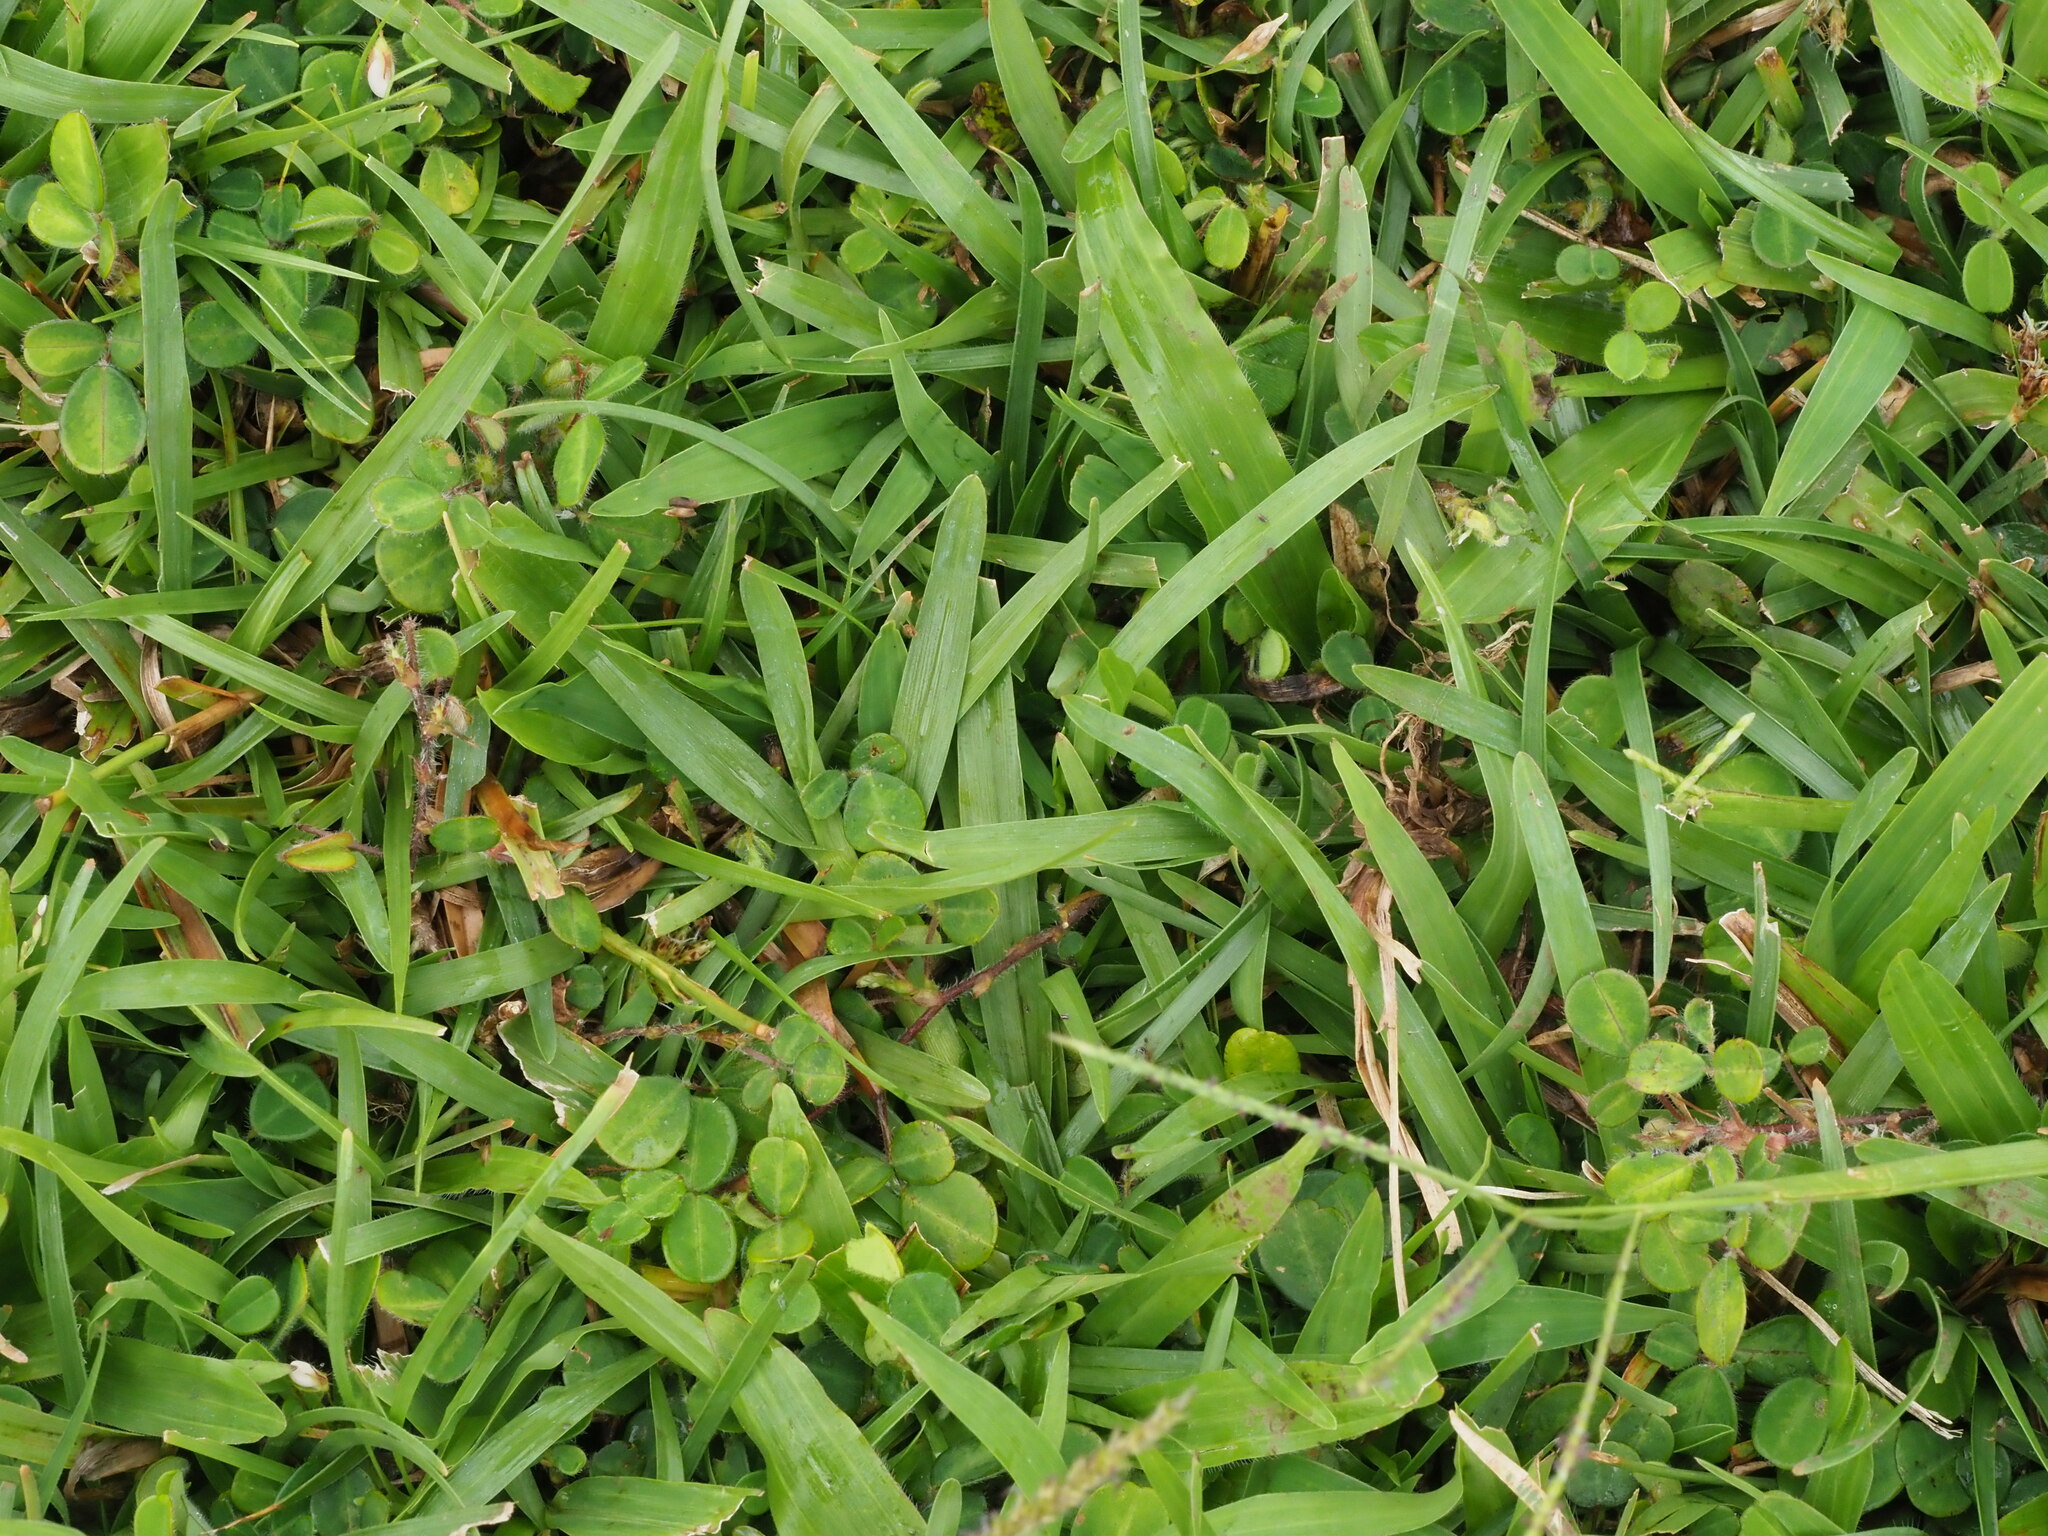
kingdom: Plantae
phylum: Tracheophyta
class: Liliopsida
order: Poales
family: Poaceae
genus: Axonopus
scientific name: Axonopus fissifolius
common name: Common carpetgrass
